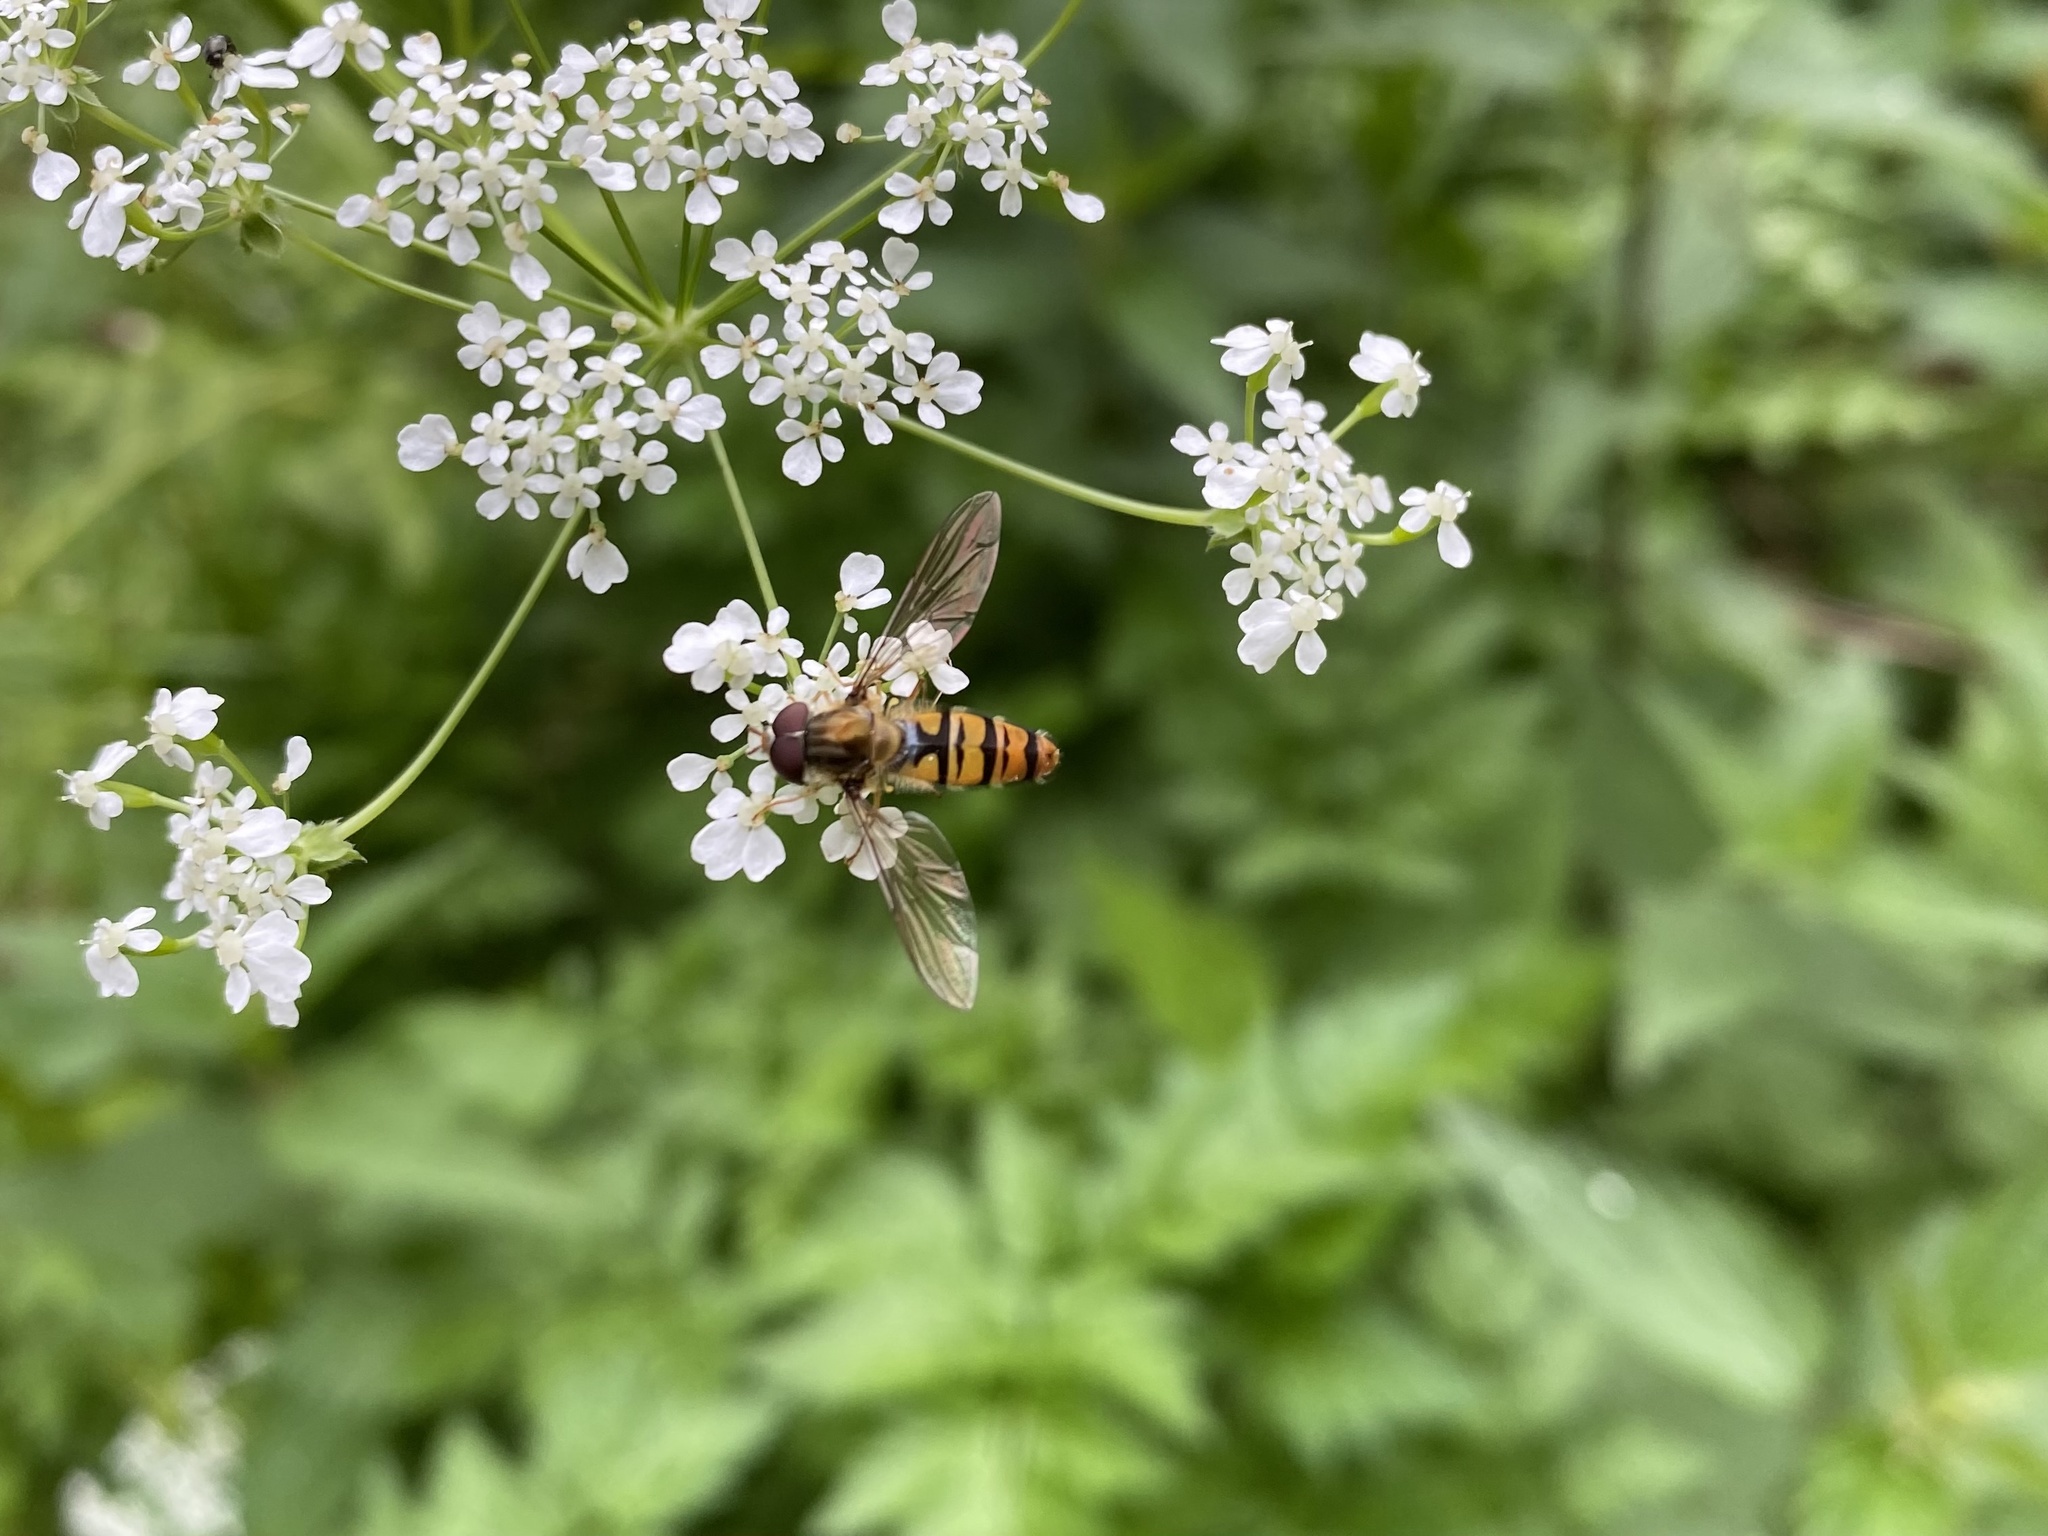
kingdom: Animalia
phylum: Arthropoda
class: Insecta
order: Diptera
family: Syrphidae
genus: Episyrphus
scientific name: Episyrphus balteatus
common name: Marmalade hoverfly
